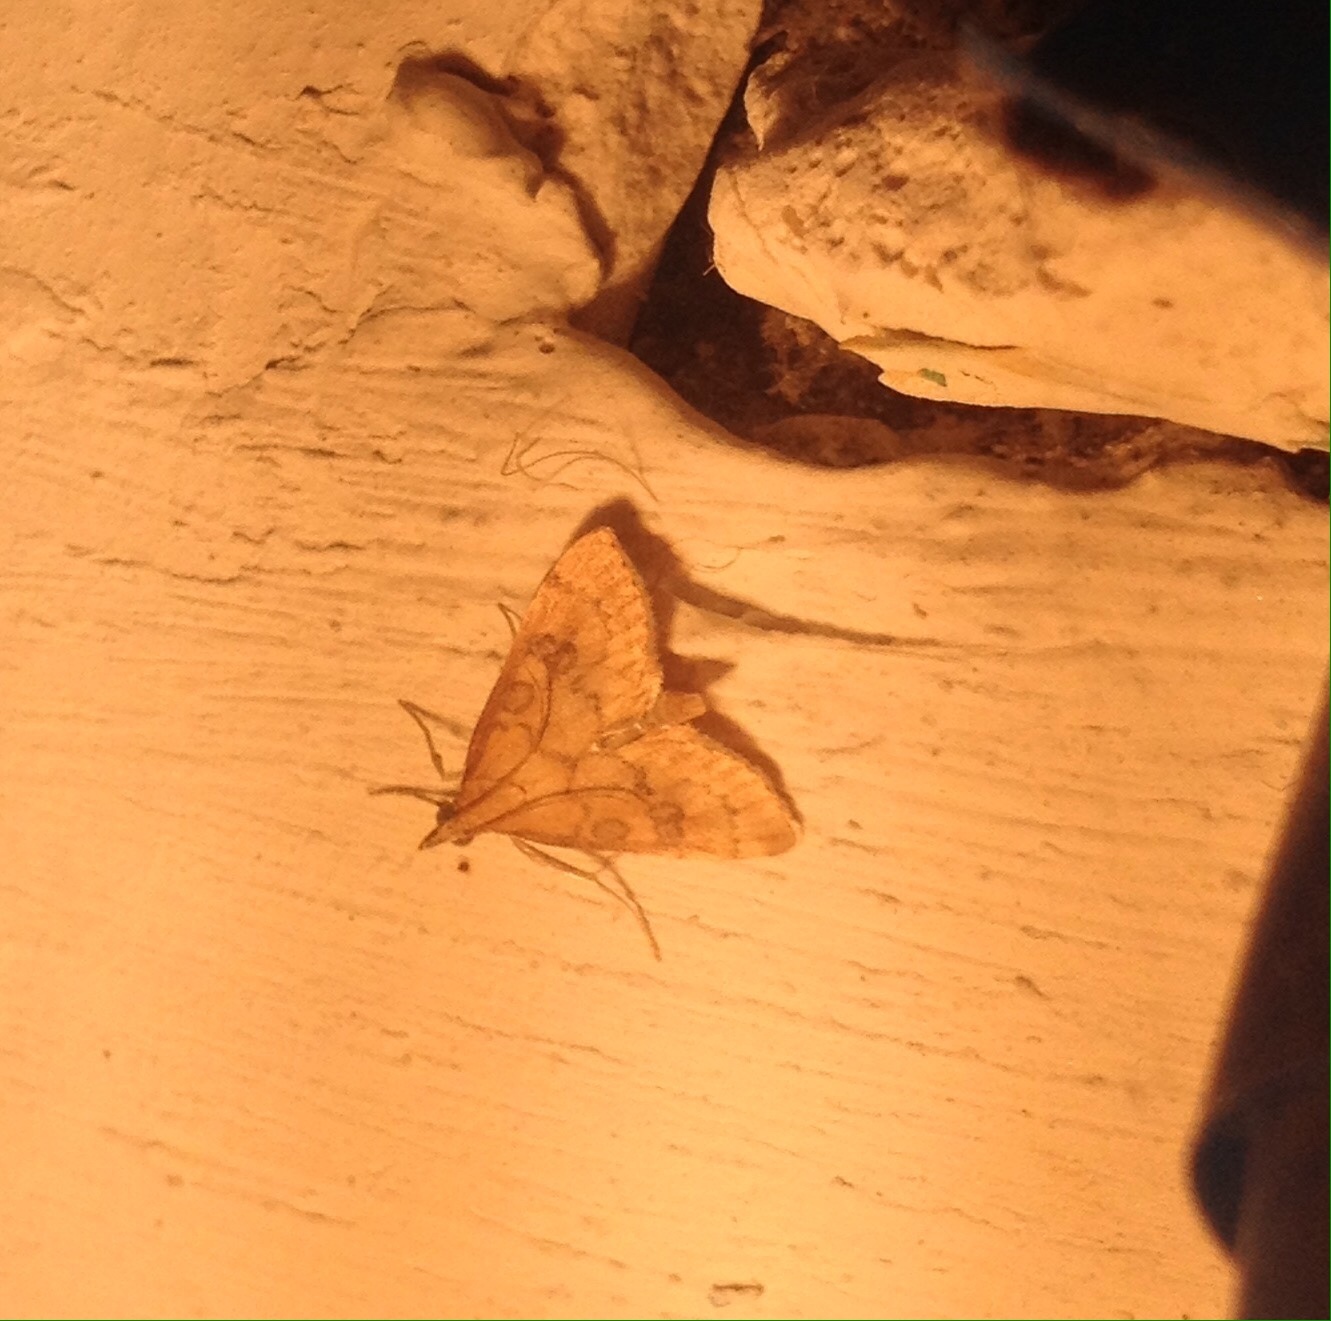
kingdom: Animalia
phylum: Arthropoda
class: Insecta
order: Lepidoptera
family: Crambidae
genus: Udea
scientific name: Udea fulvalis
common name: Fulvous pearl
